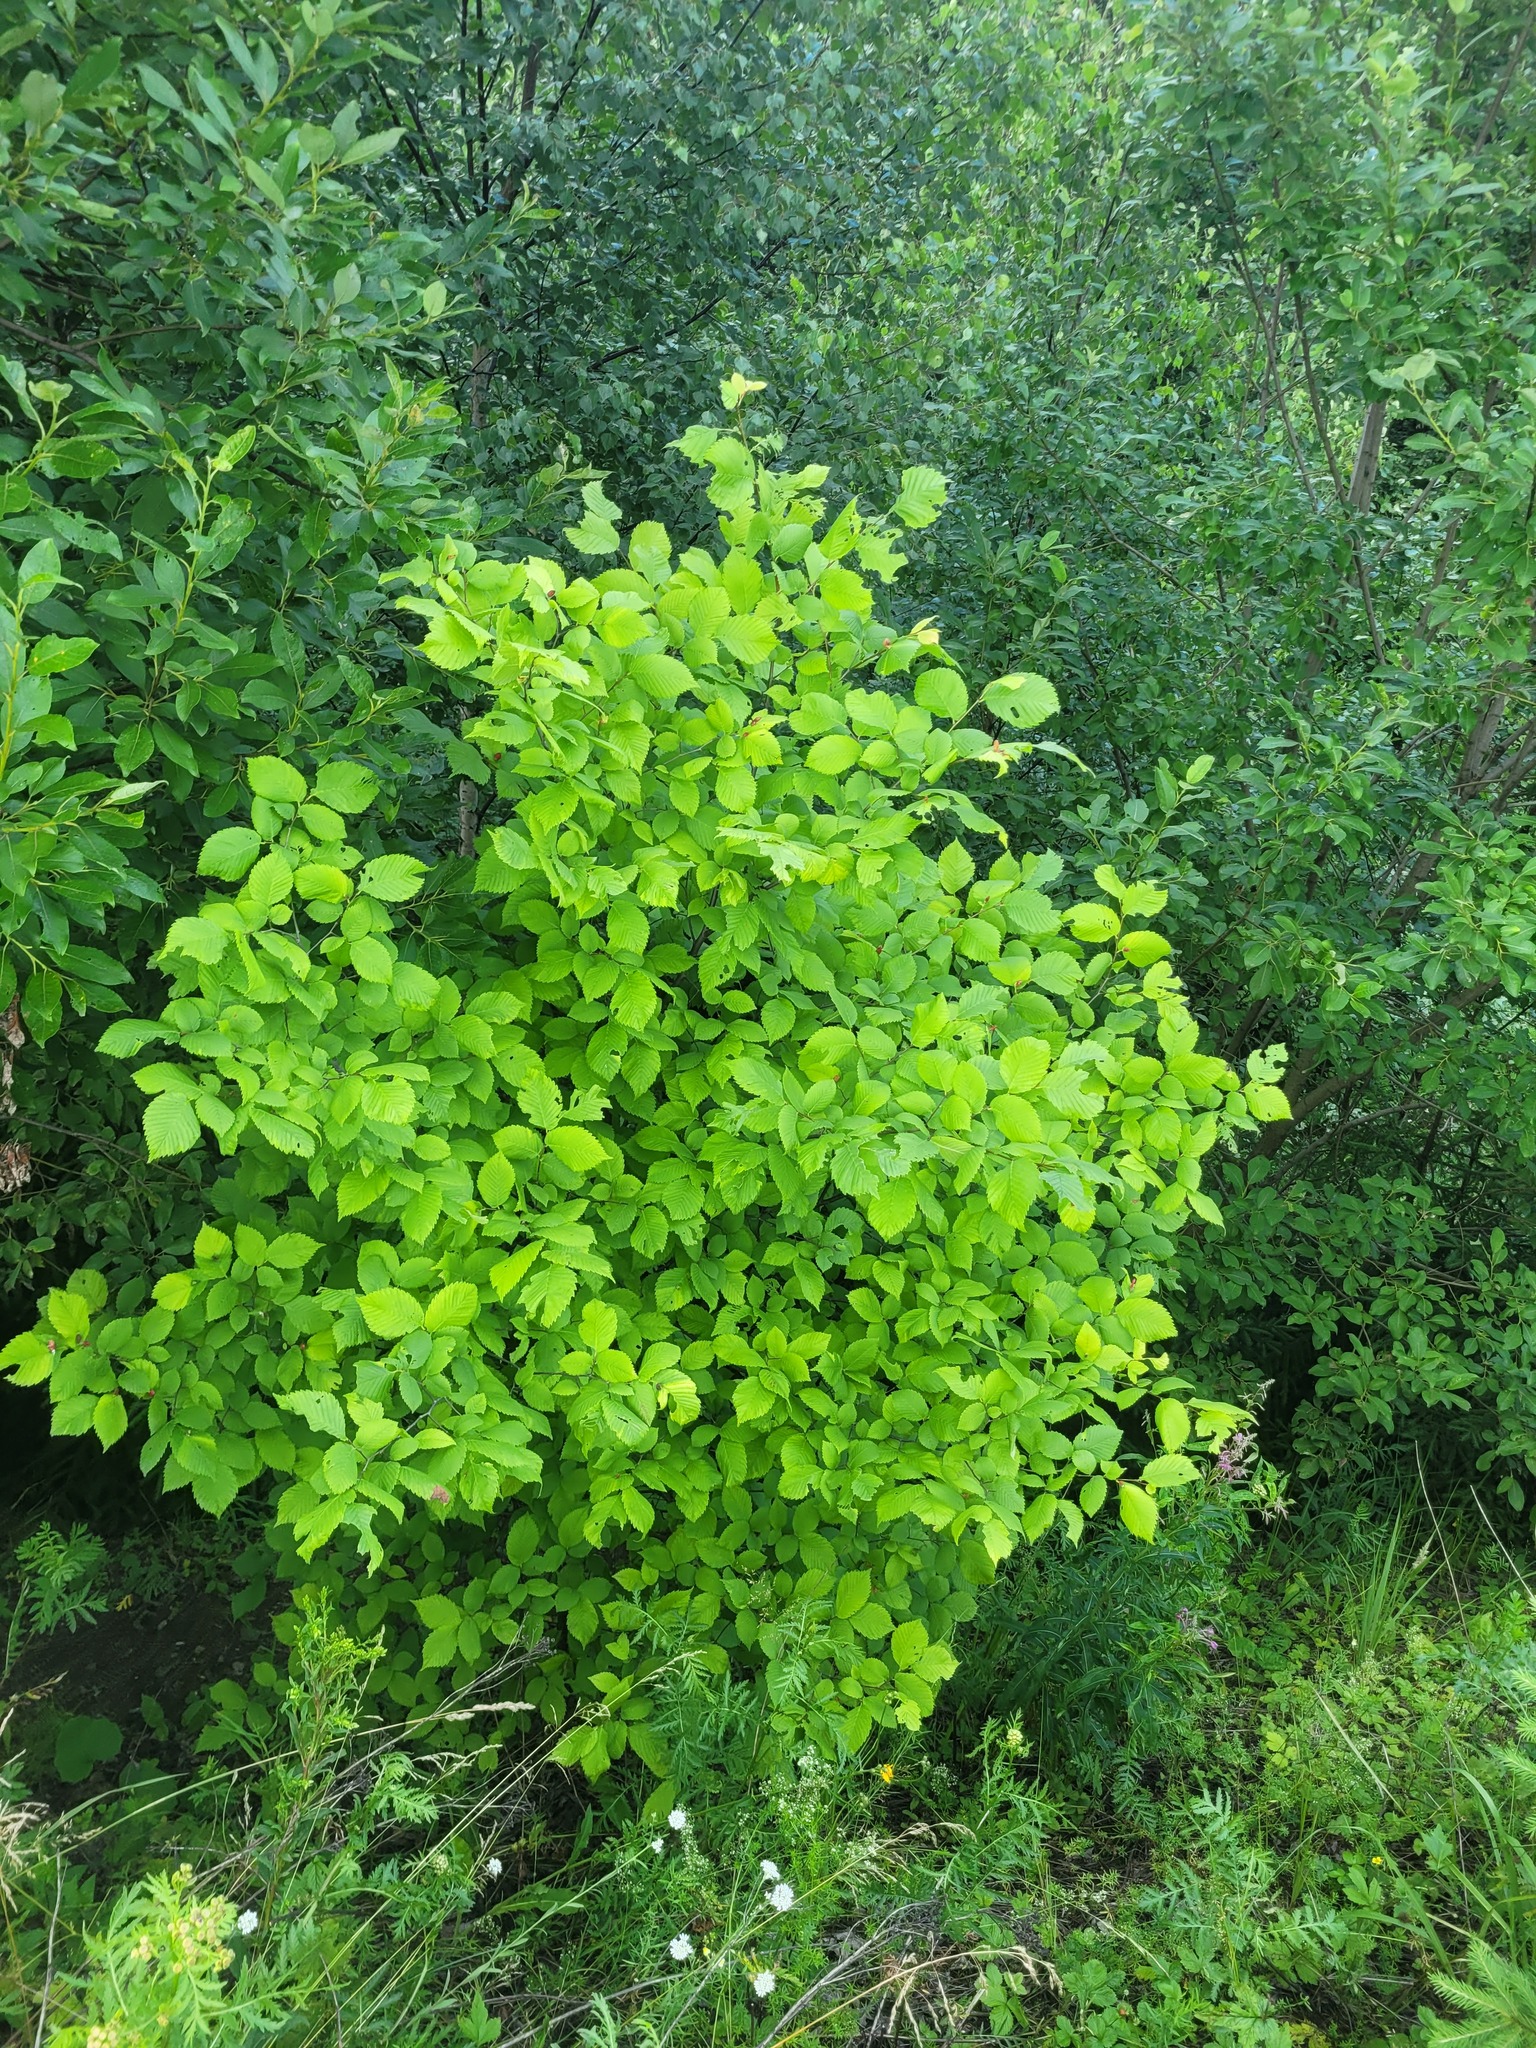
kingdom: Plantae
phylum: Tracheophyta
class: Magnoliopsida
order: Rosales
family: Ulmaceae
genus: Ulmus
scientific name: Ulmus laevis
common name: European white-elm
